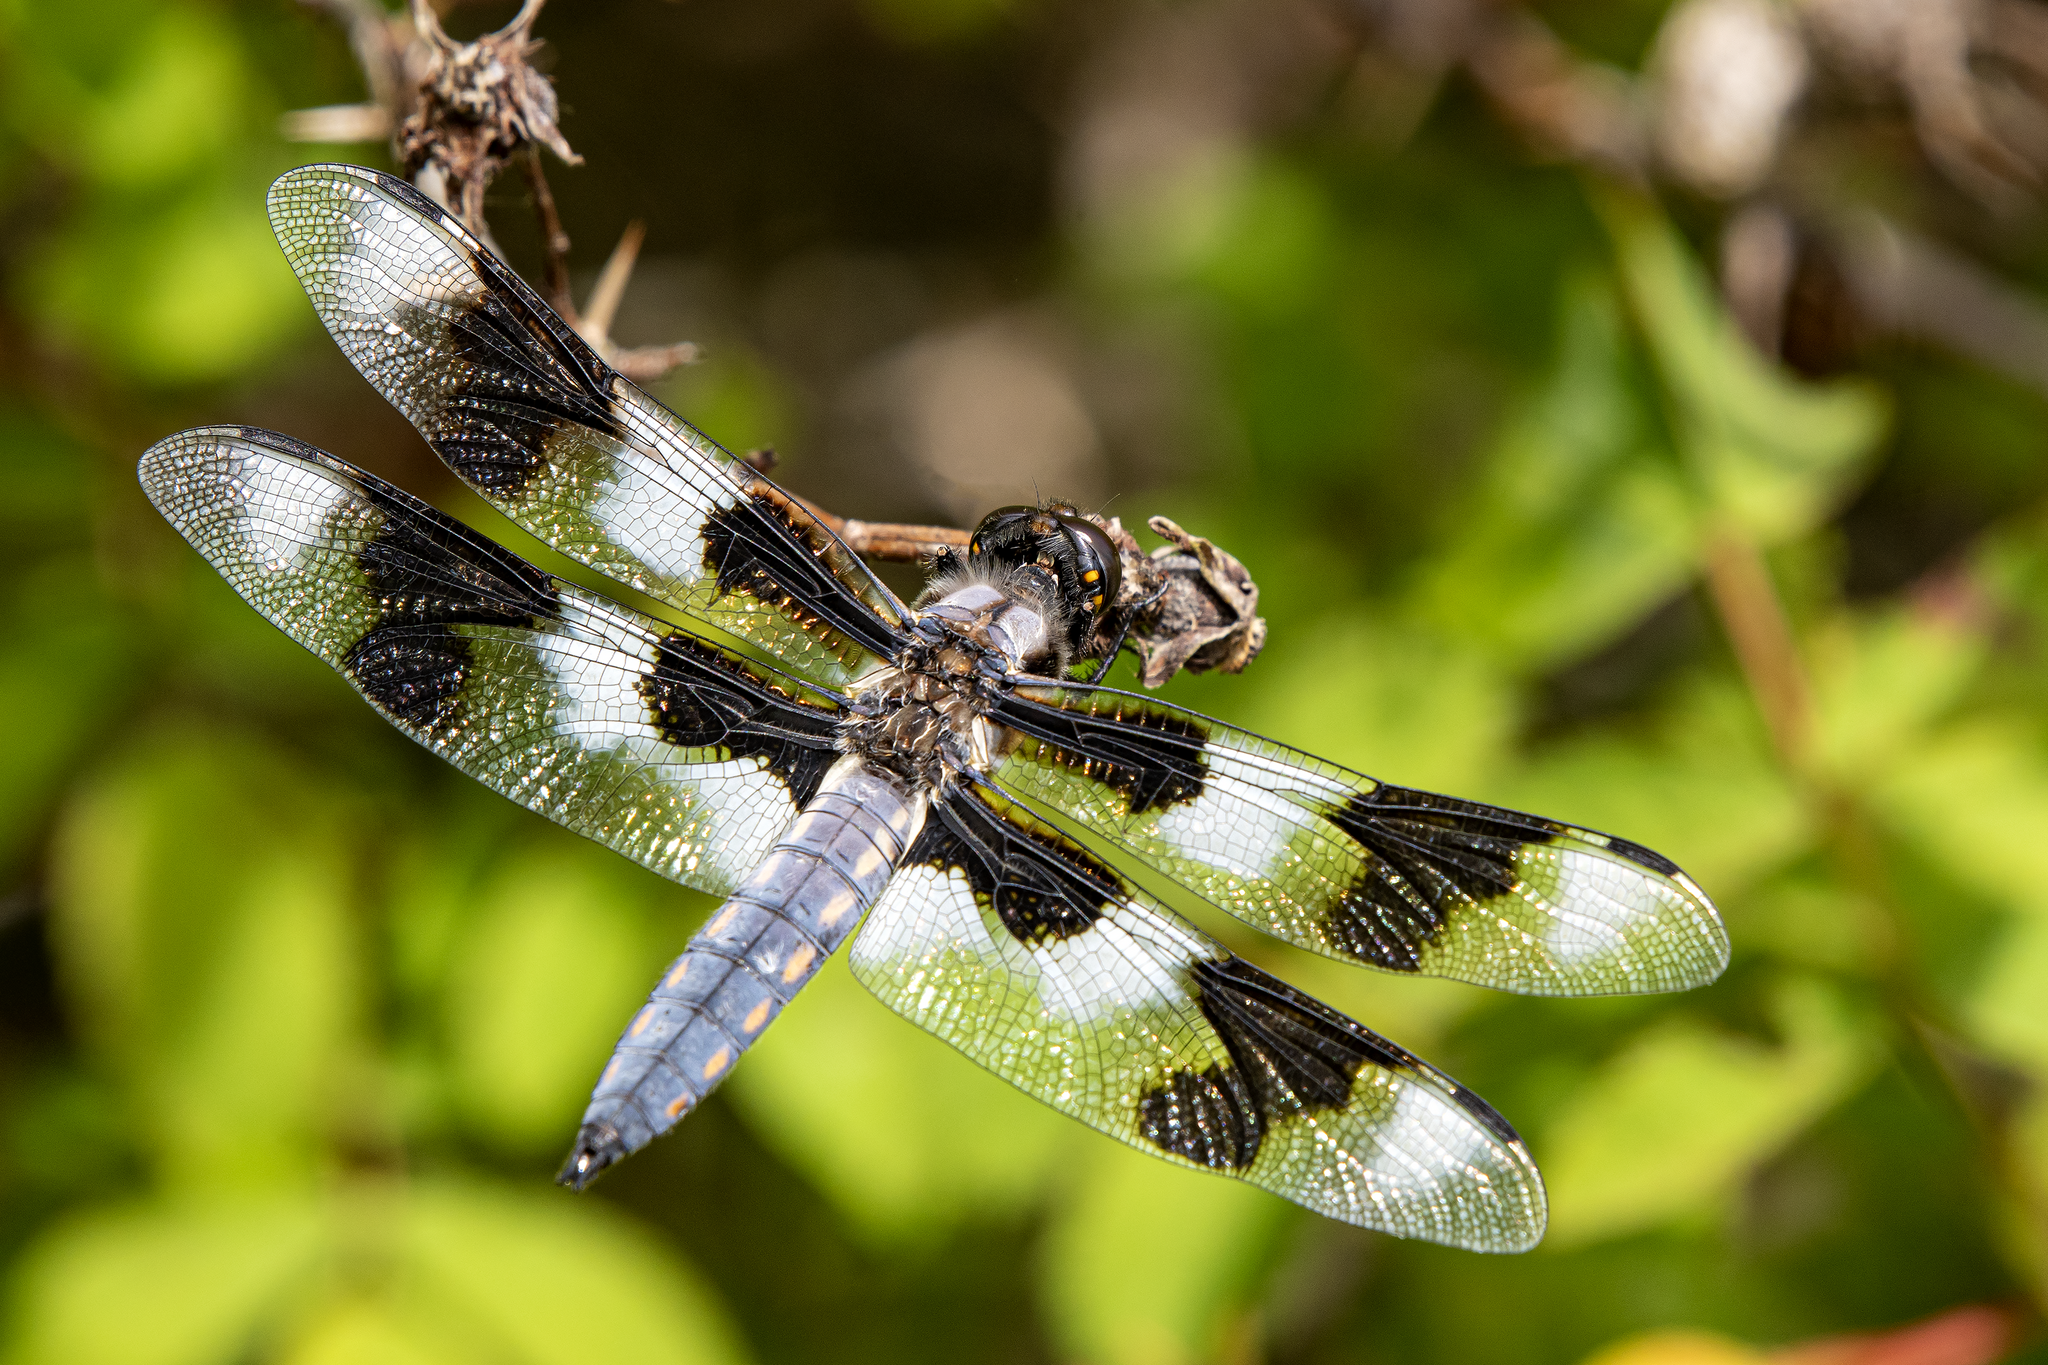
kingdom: Animalia
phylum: Arthropoda
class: Insecta
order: Odonata
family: Libellulidae
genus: Libellula
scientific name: Libellula forensis
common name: Eight-spotted skimmer
